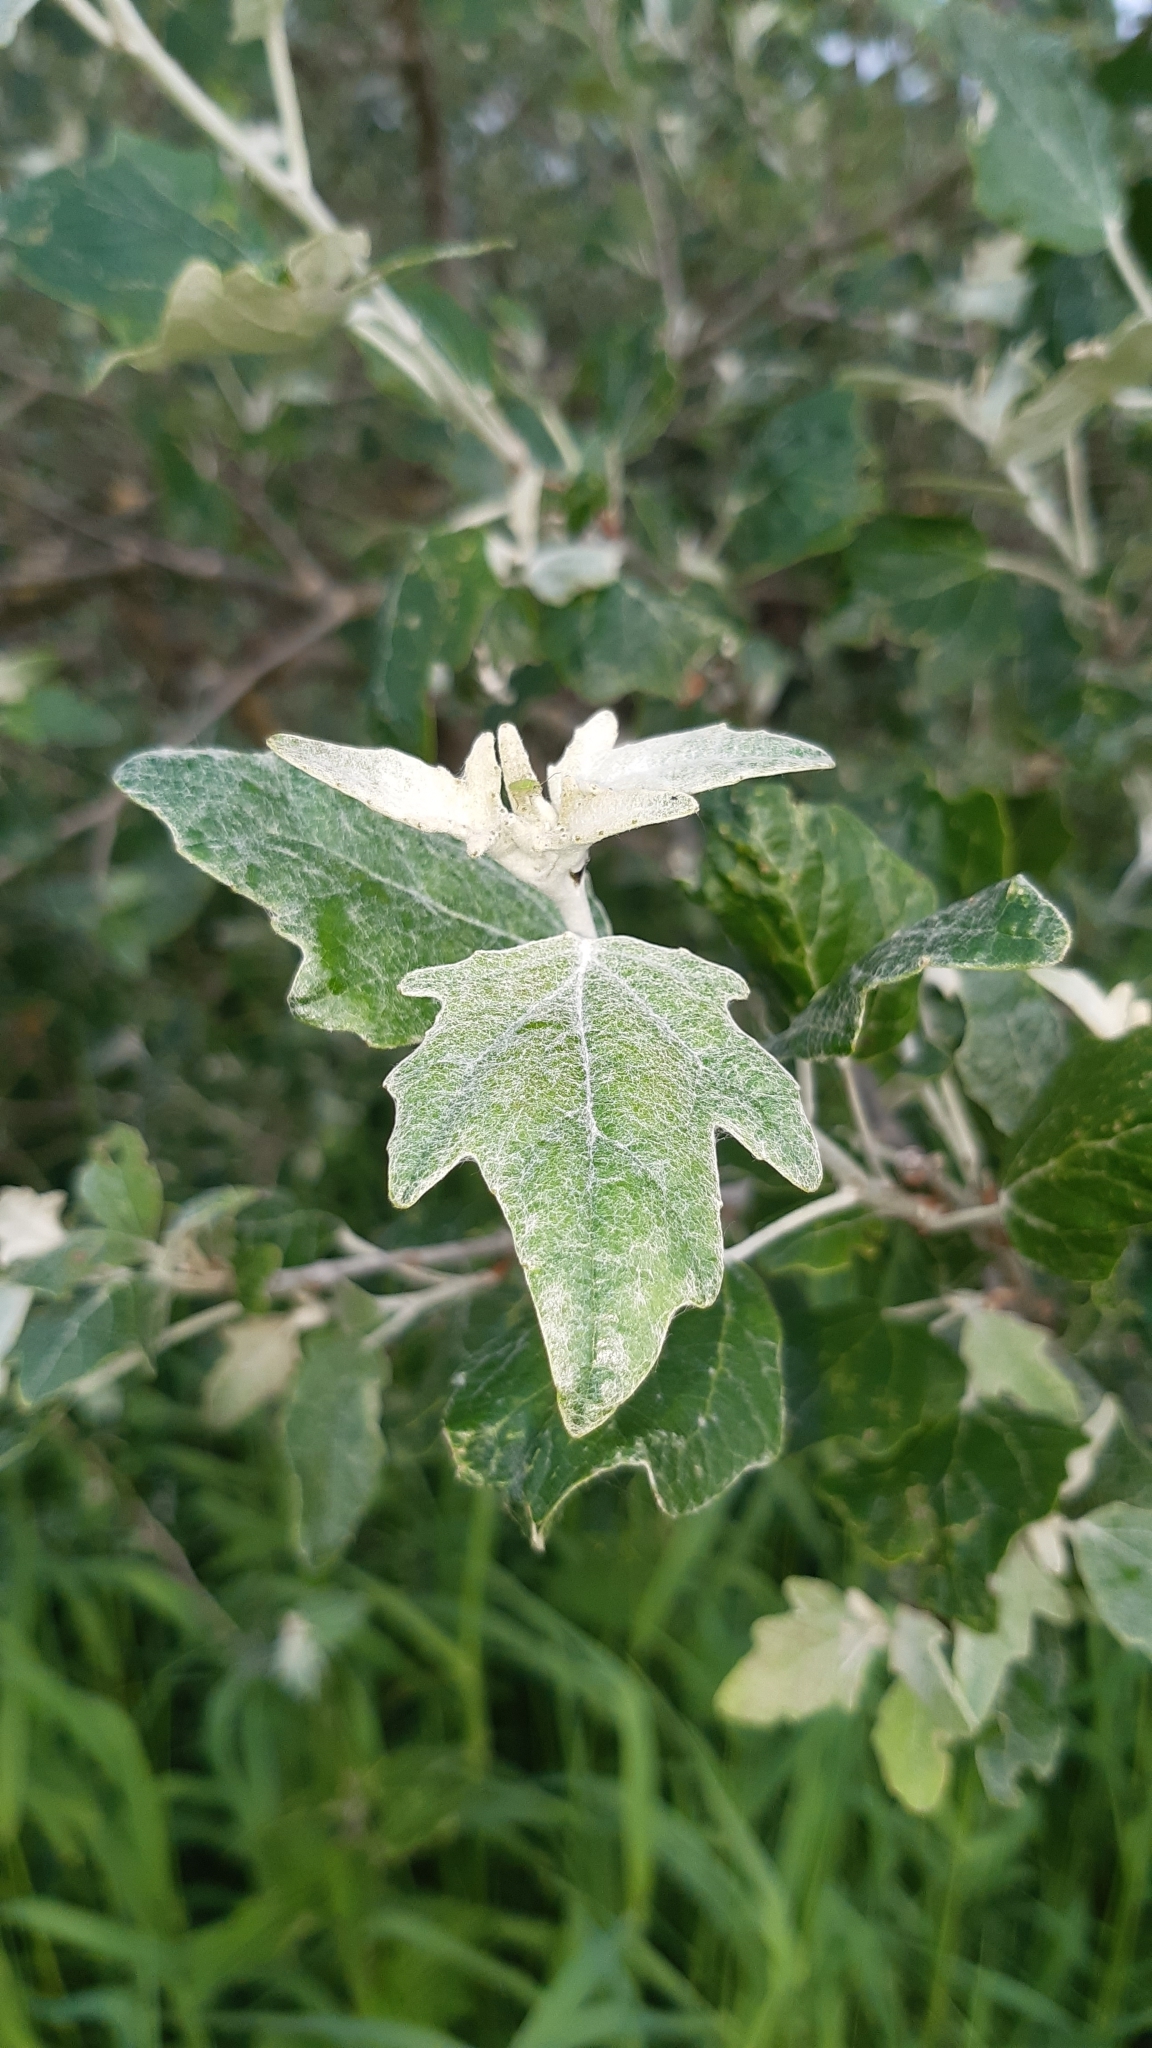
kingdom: Plantae
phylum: Tracheophyta
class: Magnoliopsida
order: Malpighiales
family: Salicaceae
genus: Populus
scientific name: Populus alba
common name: White poplar
